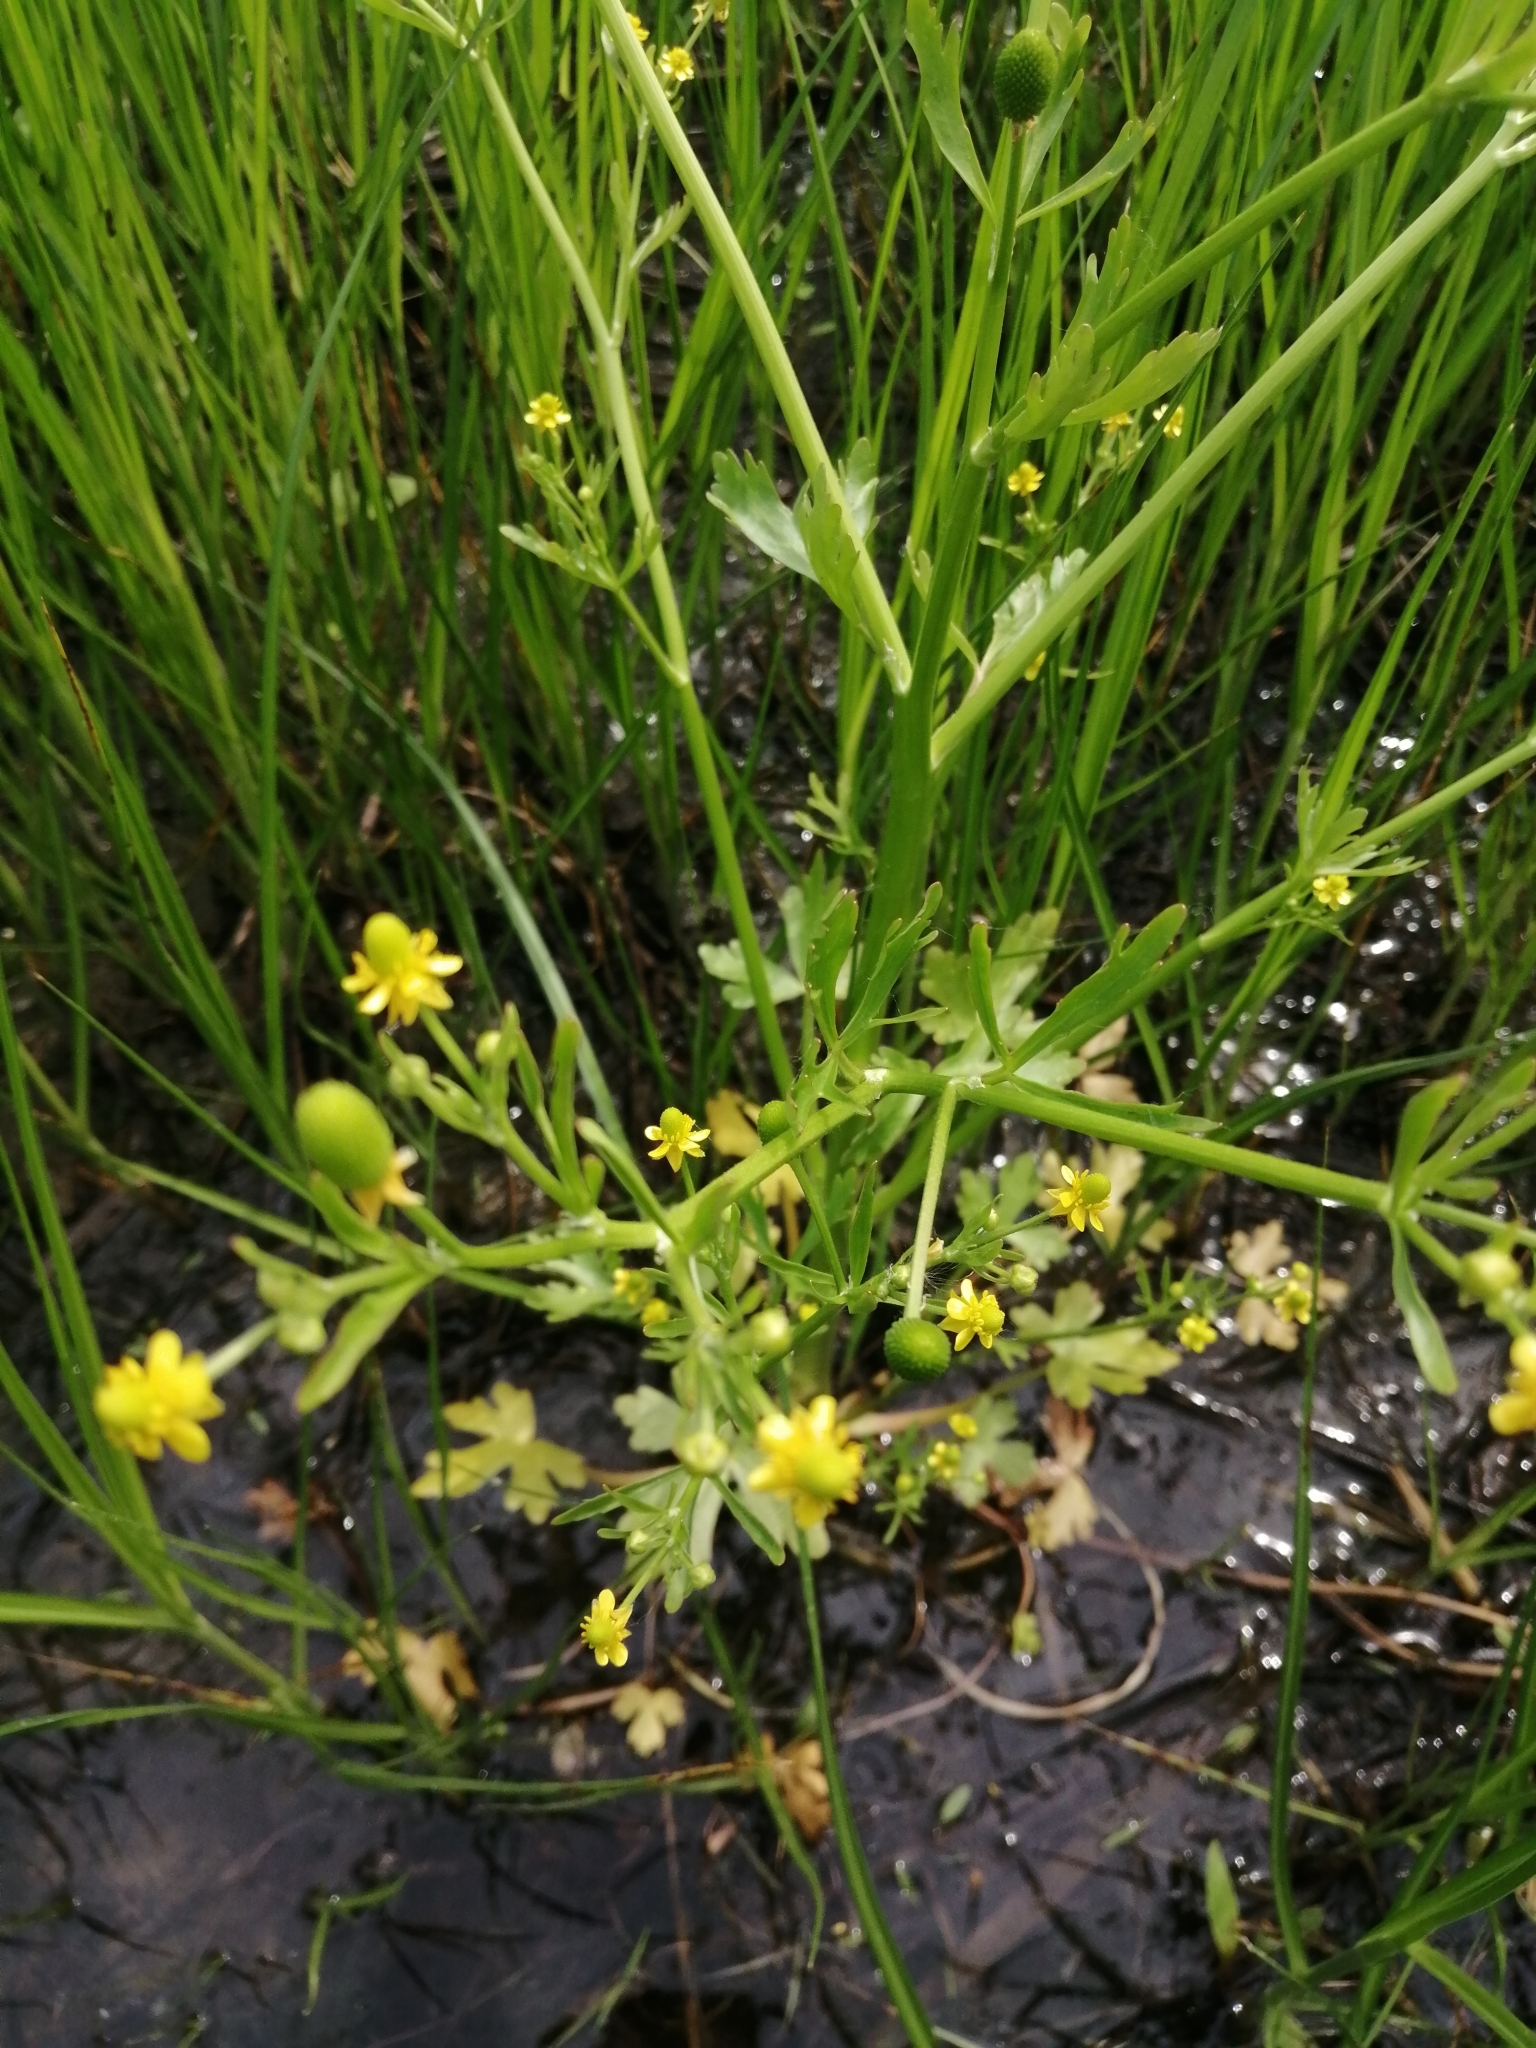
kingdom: Plantae
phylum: Tracheophyta
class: Magnoliopsida
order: Ranunculales
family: Ranunculaceae
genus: Ranunculus
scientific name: Ranunculus sceleratus
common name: Celery-leaved buttercup
